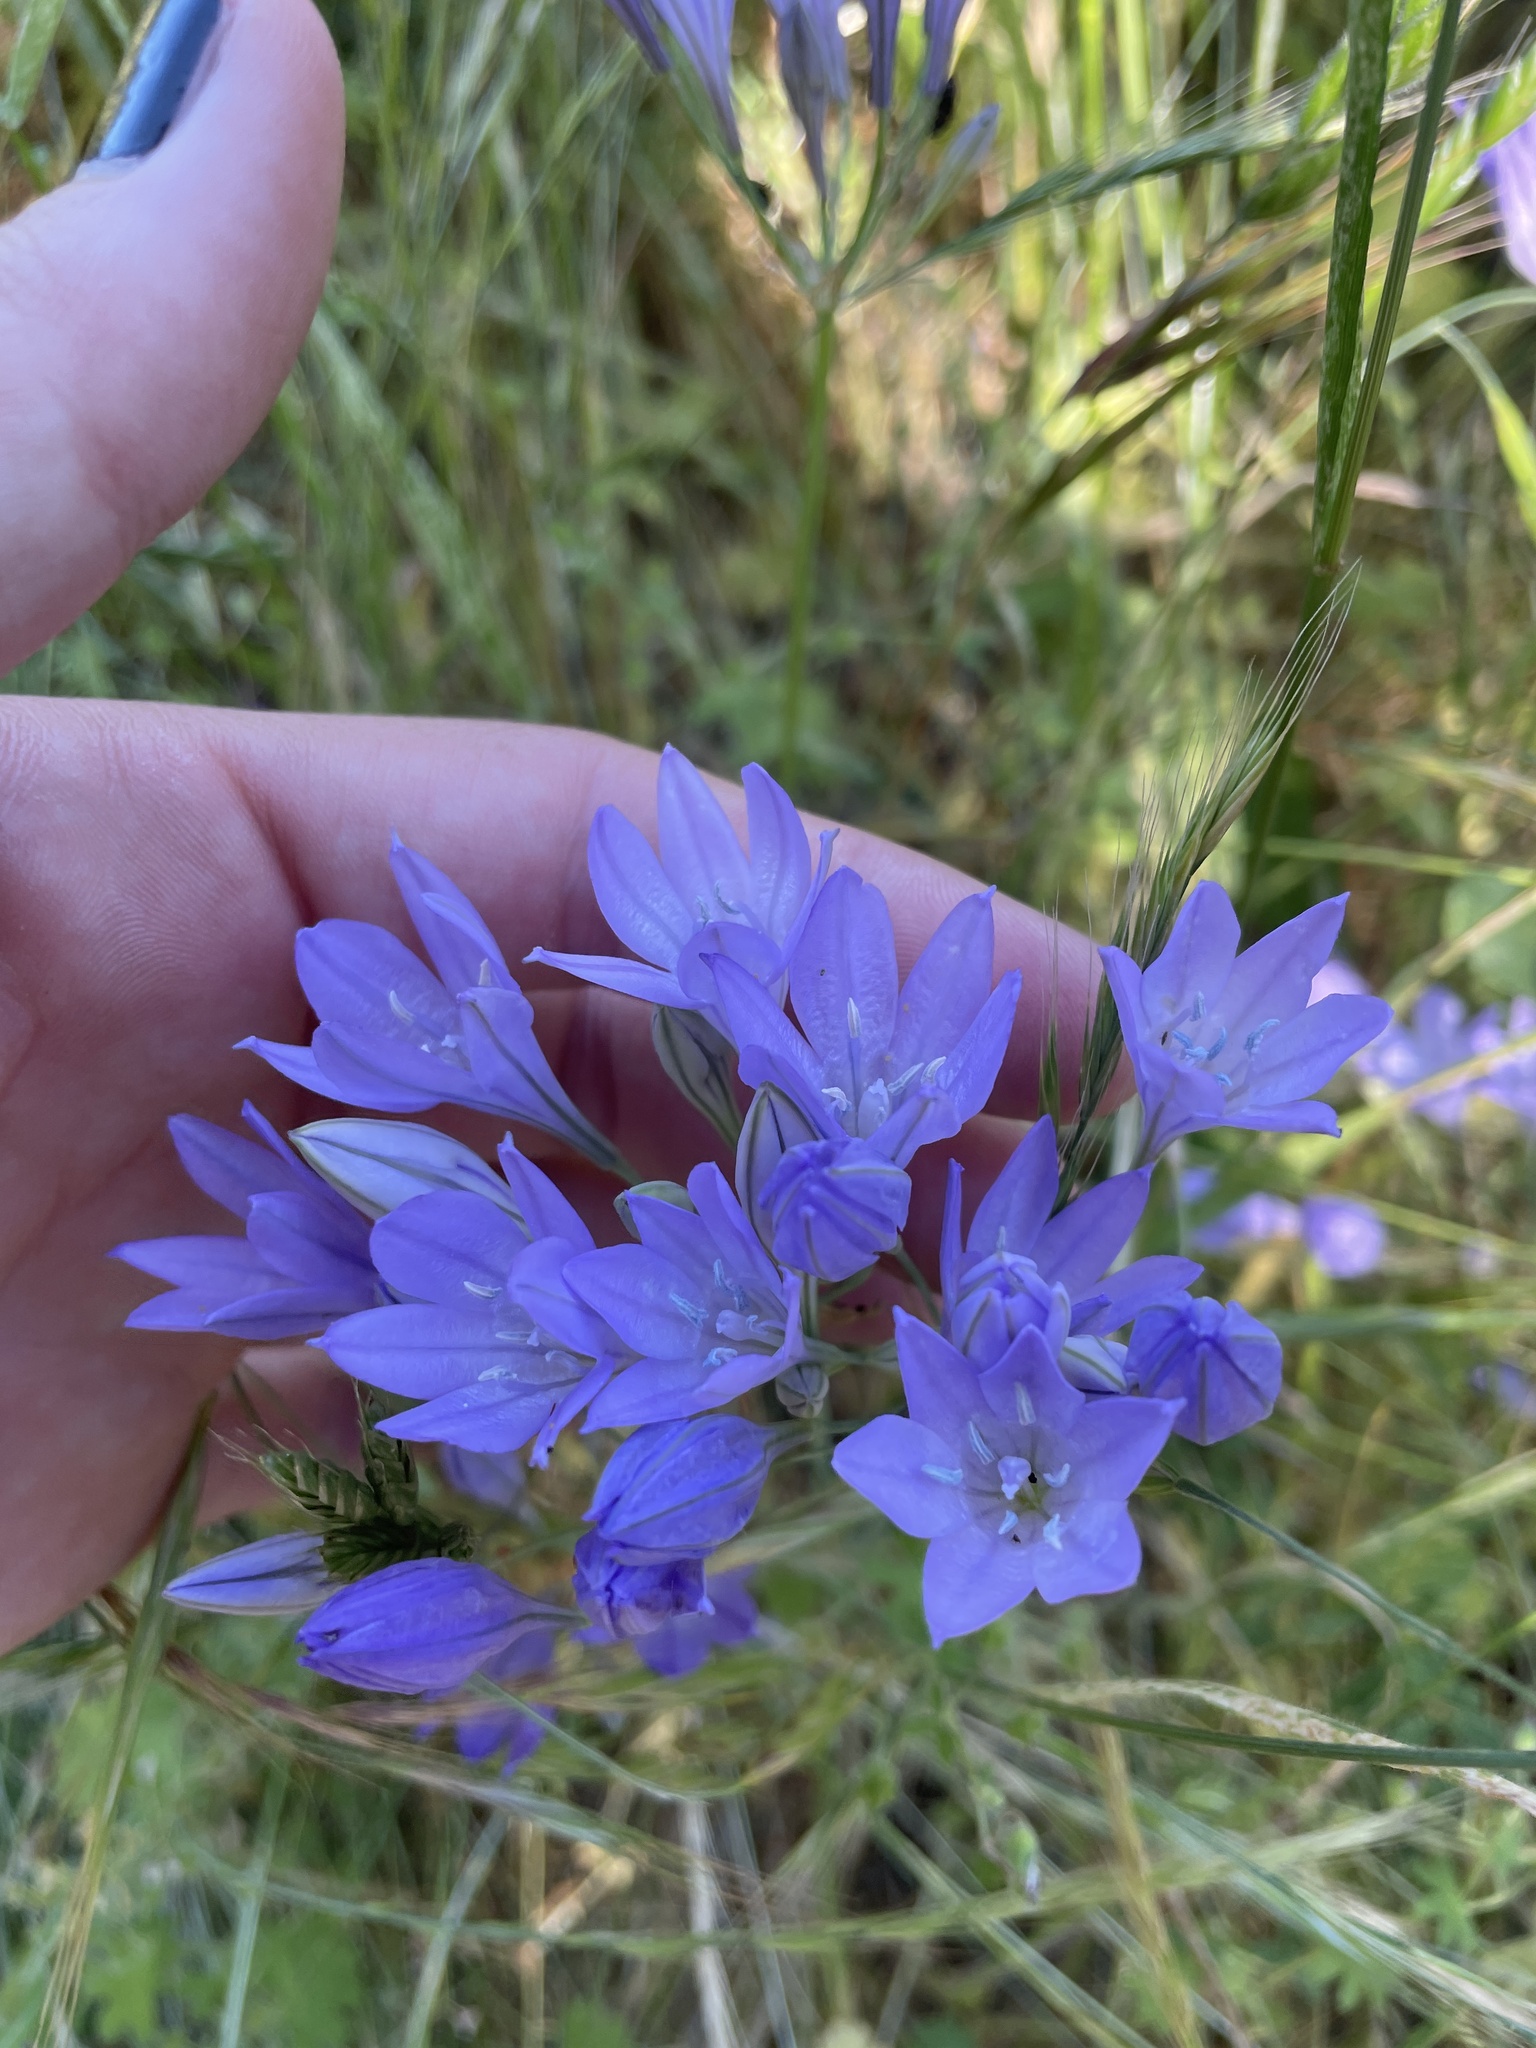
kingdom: Plantae
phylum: Tracheophyta
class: Liliopsida
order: Asparagales
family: Asparagaceae
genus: Triteleia
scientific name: Triteleia laxa
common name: Triplet-lily
